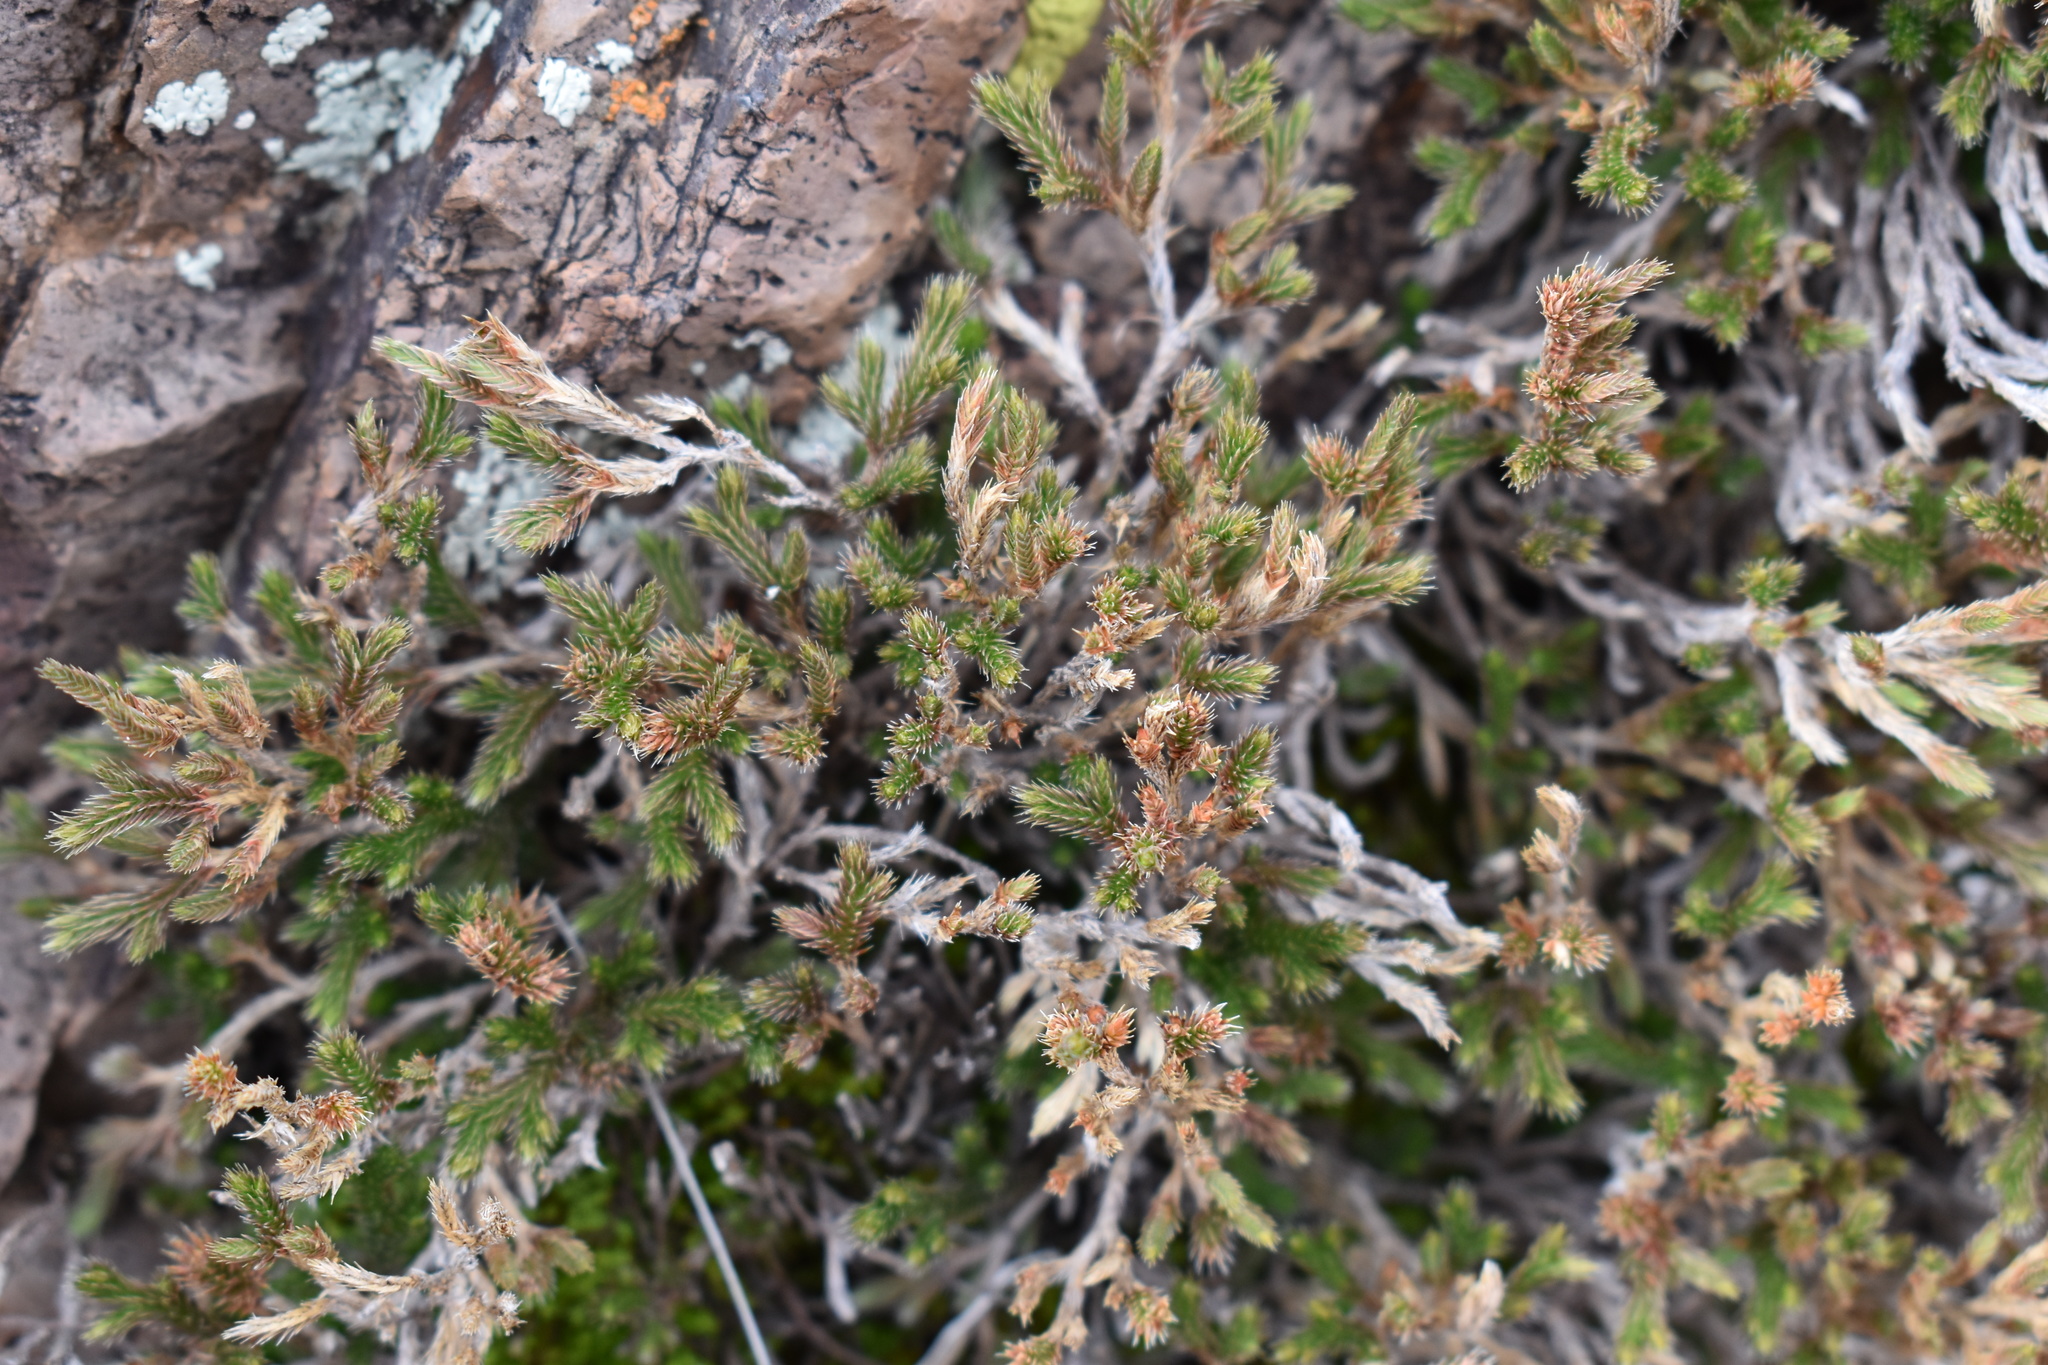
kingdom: Plantae
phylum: Tracheophyta
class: Lycopodiopsida
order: Selaginellales
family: Selaginellaceae
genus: Selaginella
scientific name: Selaginella rupincola
